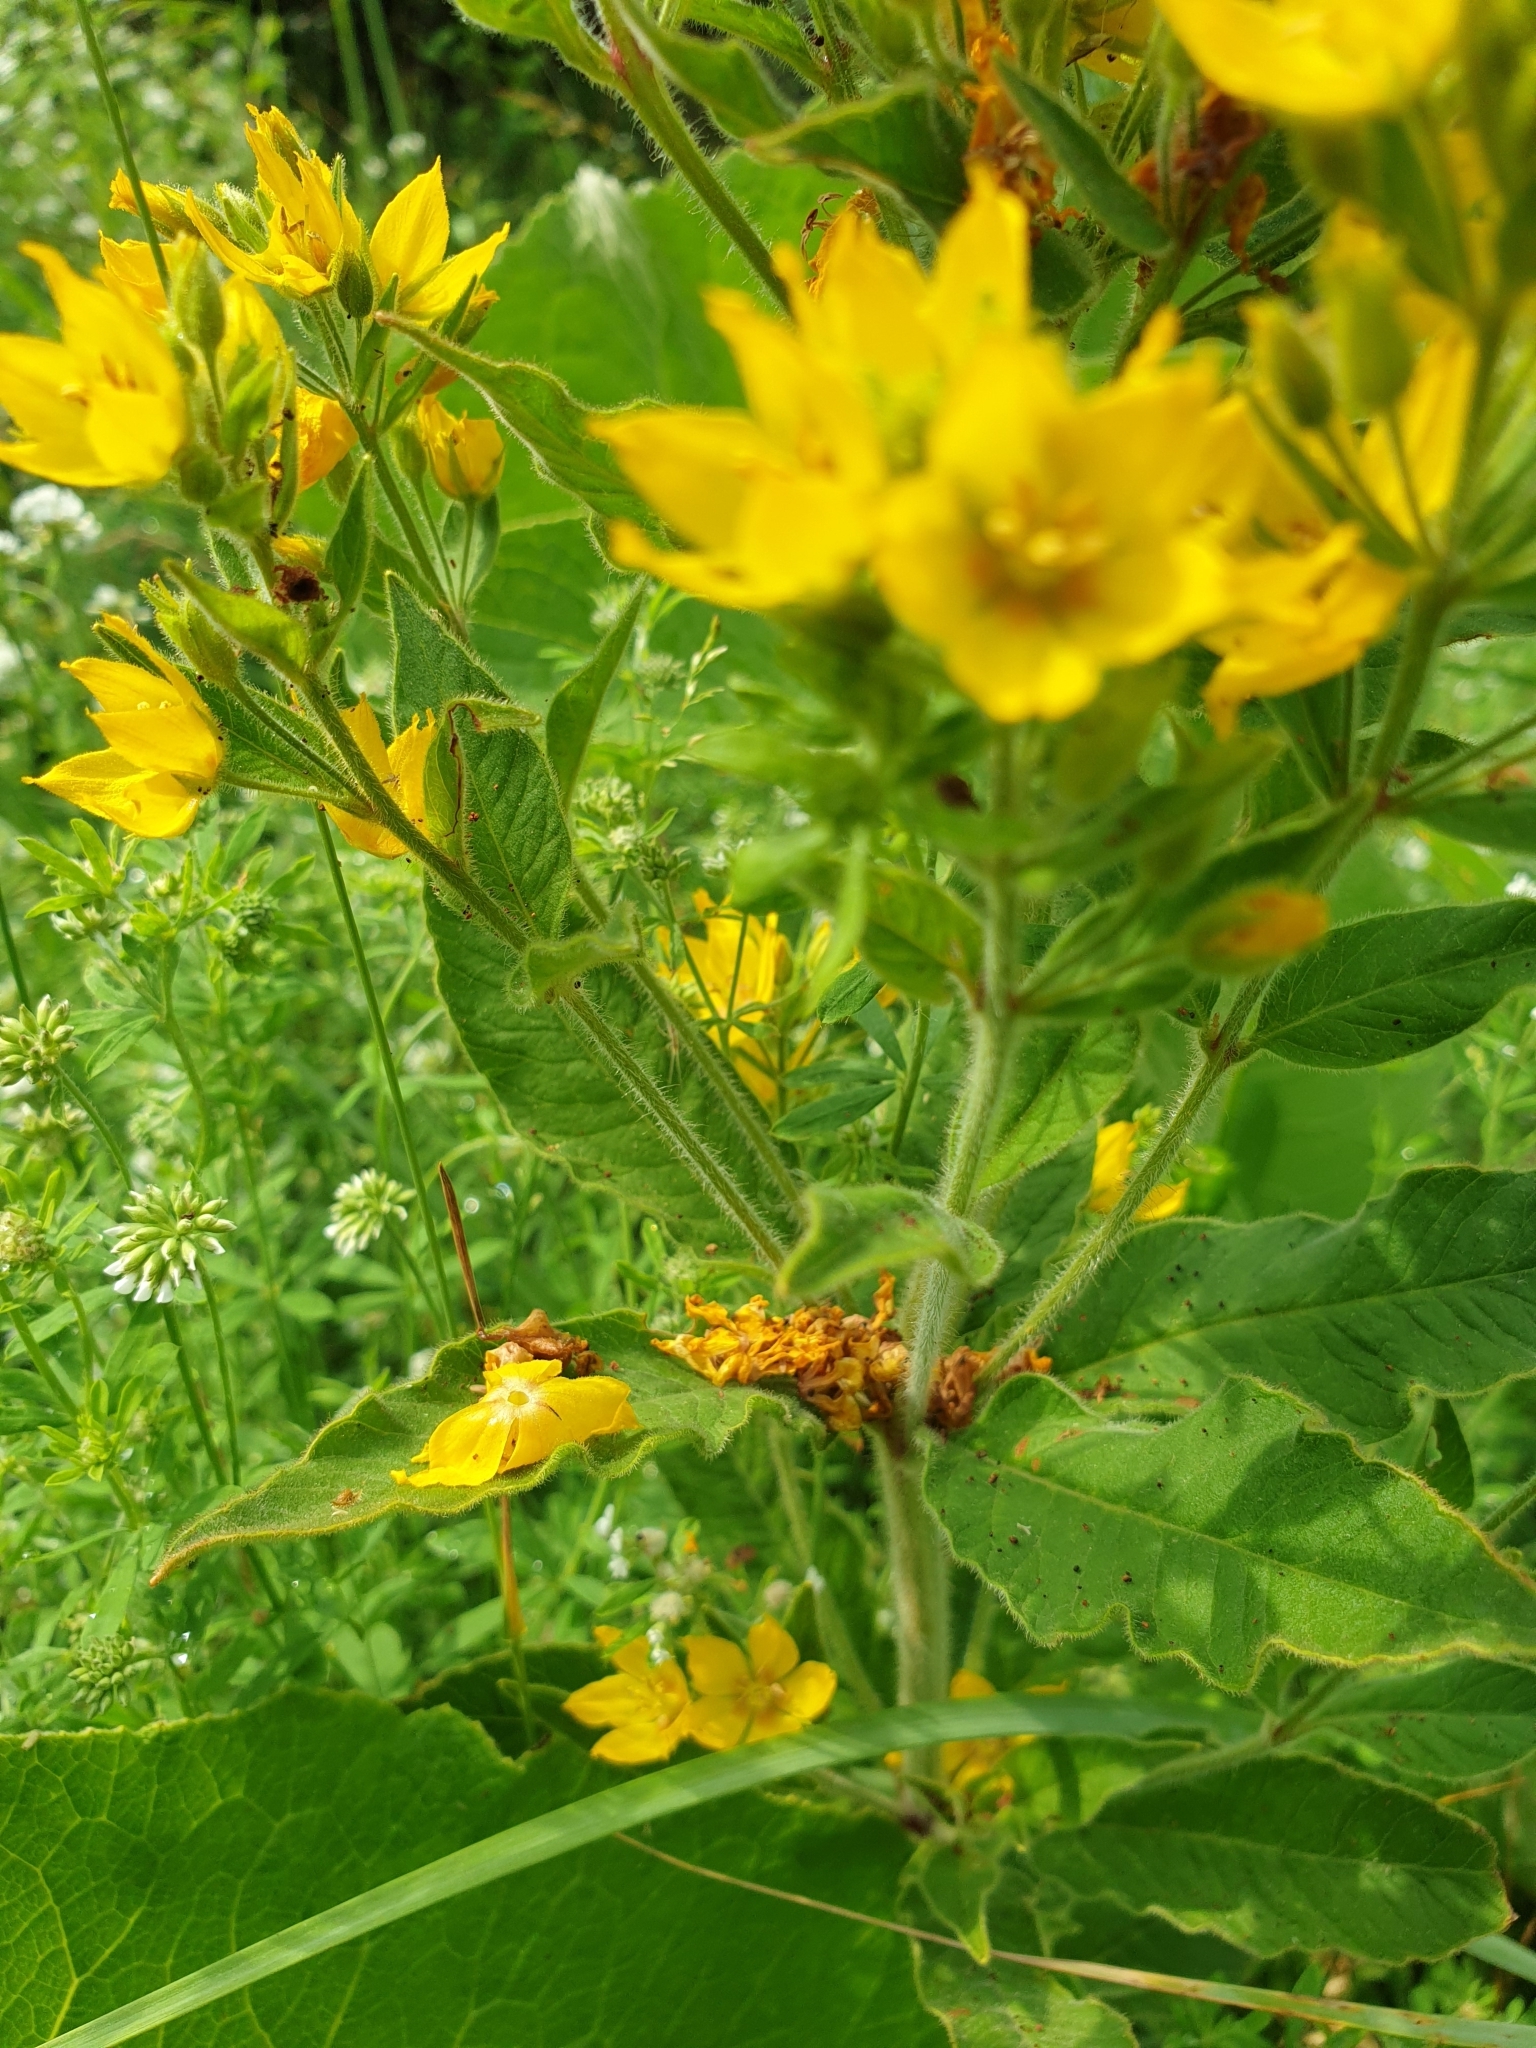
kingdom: Plantae
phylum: Tracheophyta
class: Magnoliopsida
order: Ericales
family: Primulaceae
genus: Lysimachia
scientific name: Lysimachia punctata
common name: Dotted loosestrife
